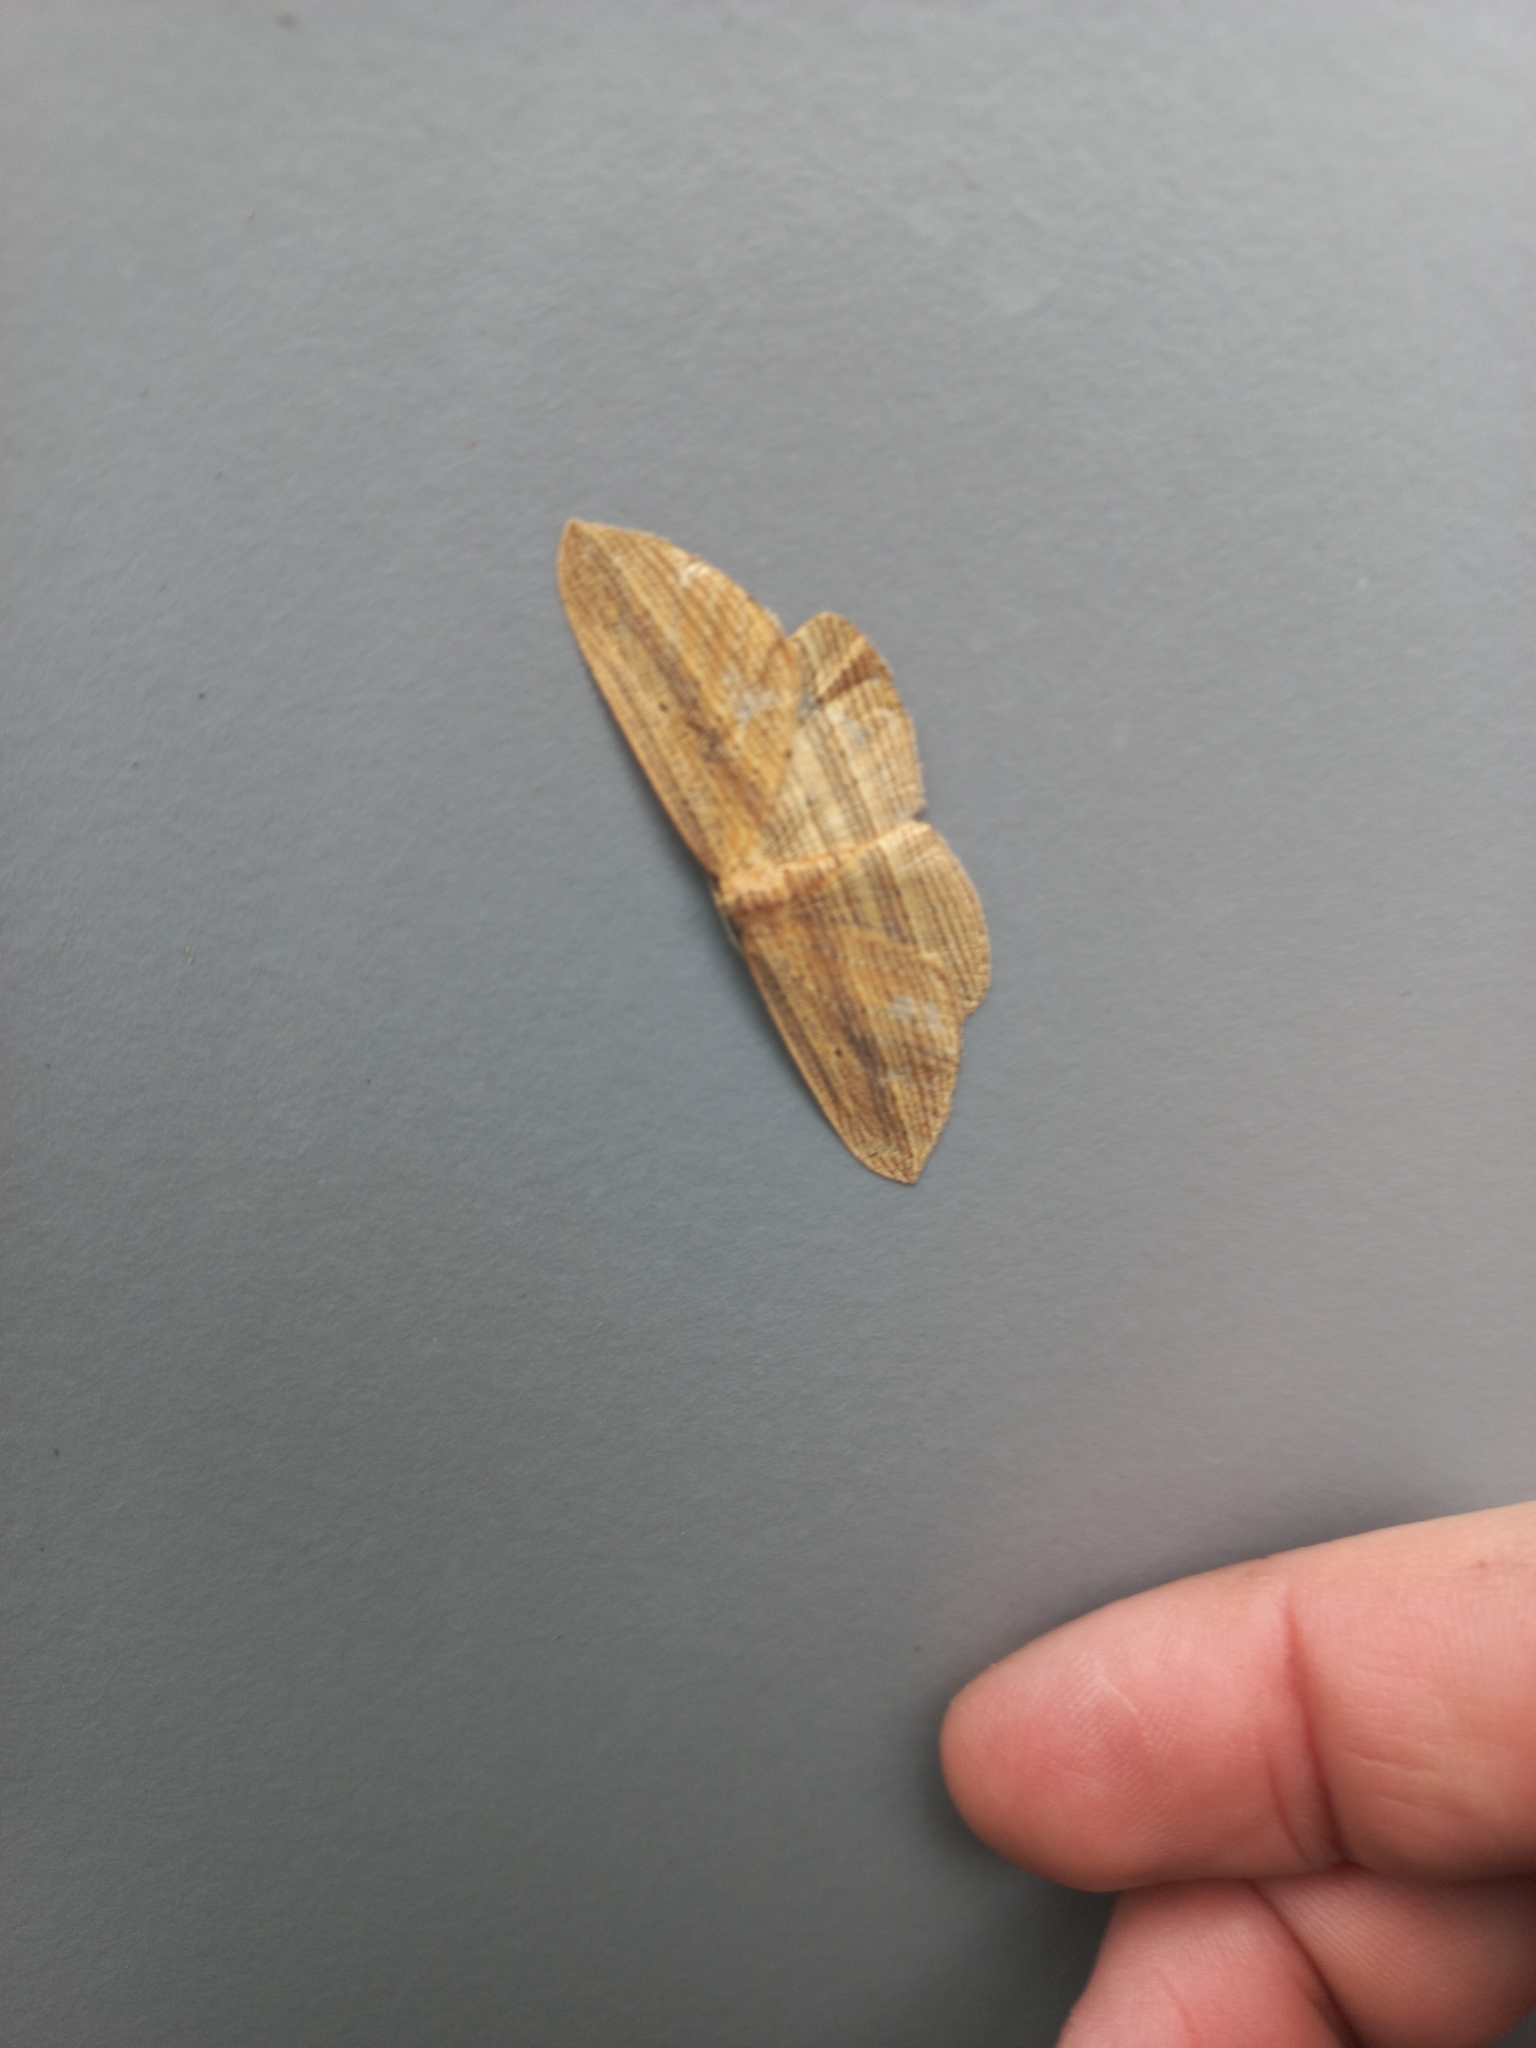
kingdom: Animalia
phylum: Arthropoda
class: Insecta
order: Lepidoptera
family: Geometridae
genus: Epiphryne
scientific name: Epiphryne verriculata
